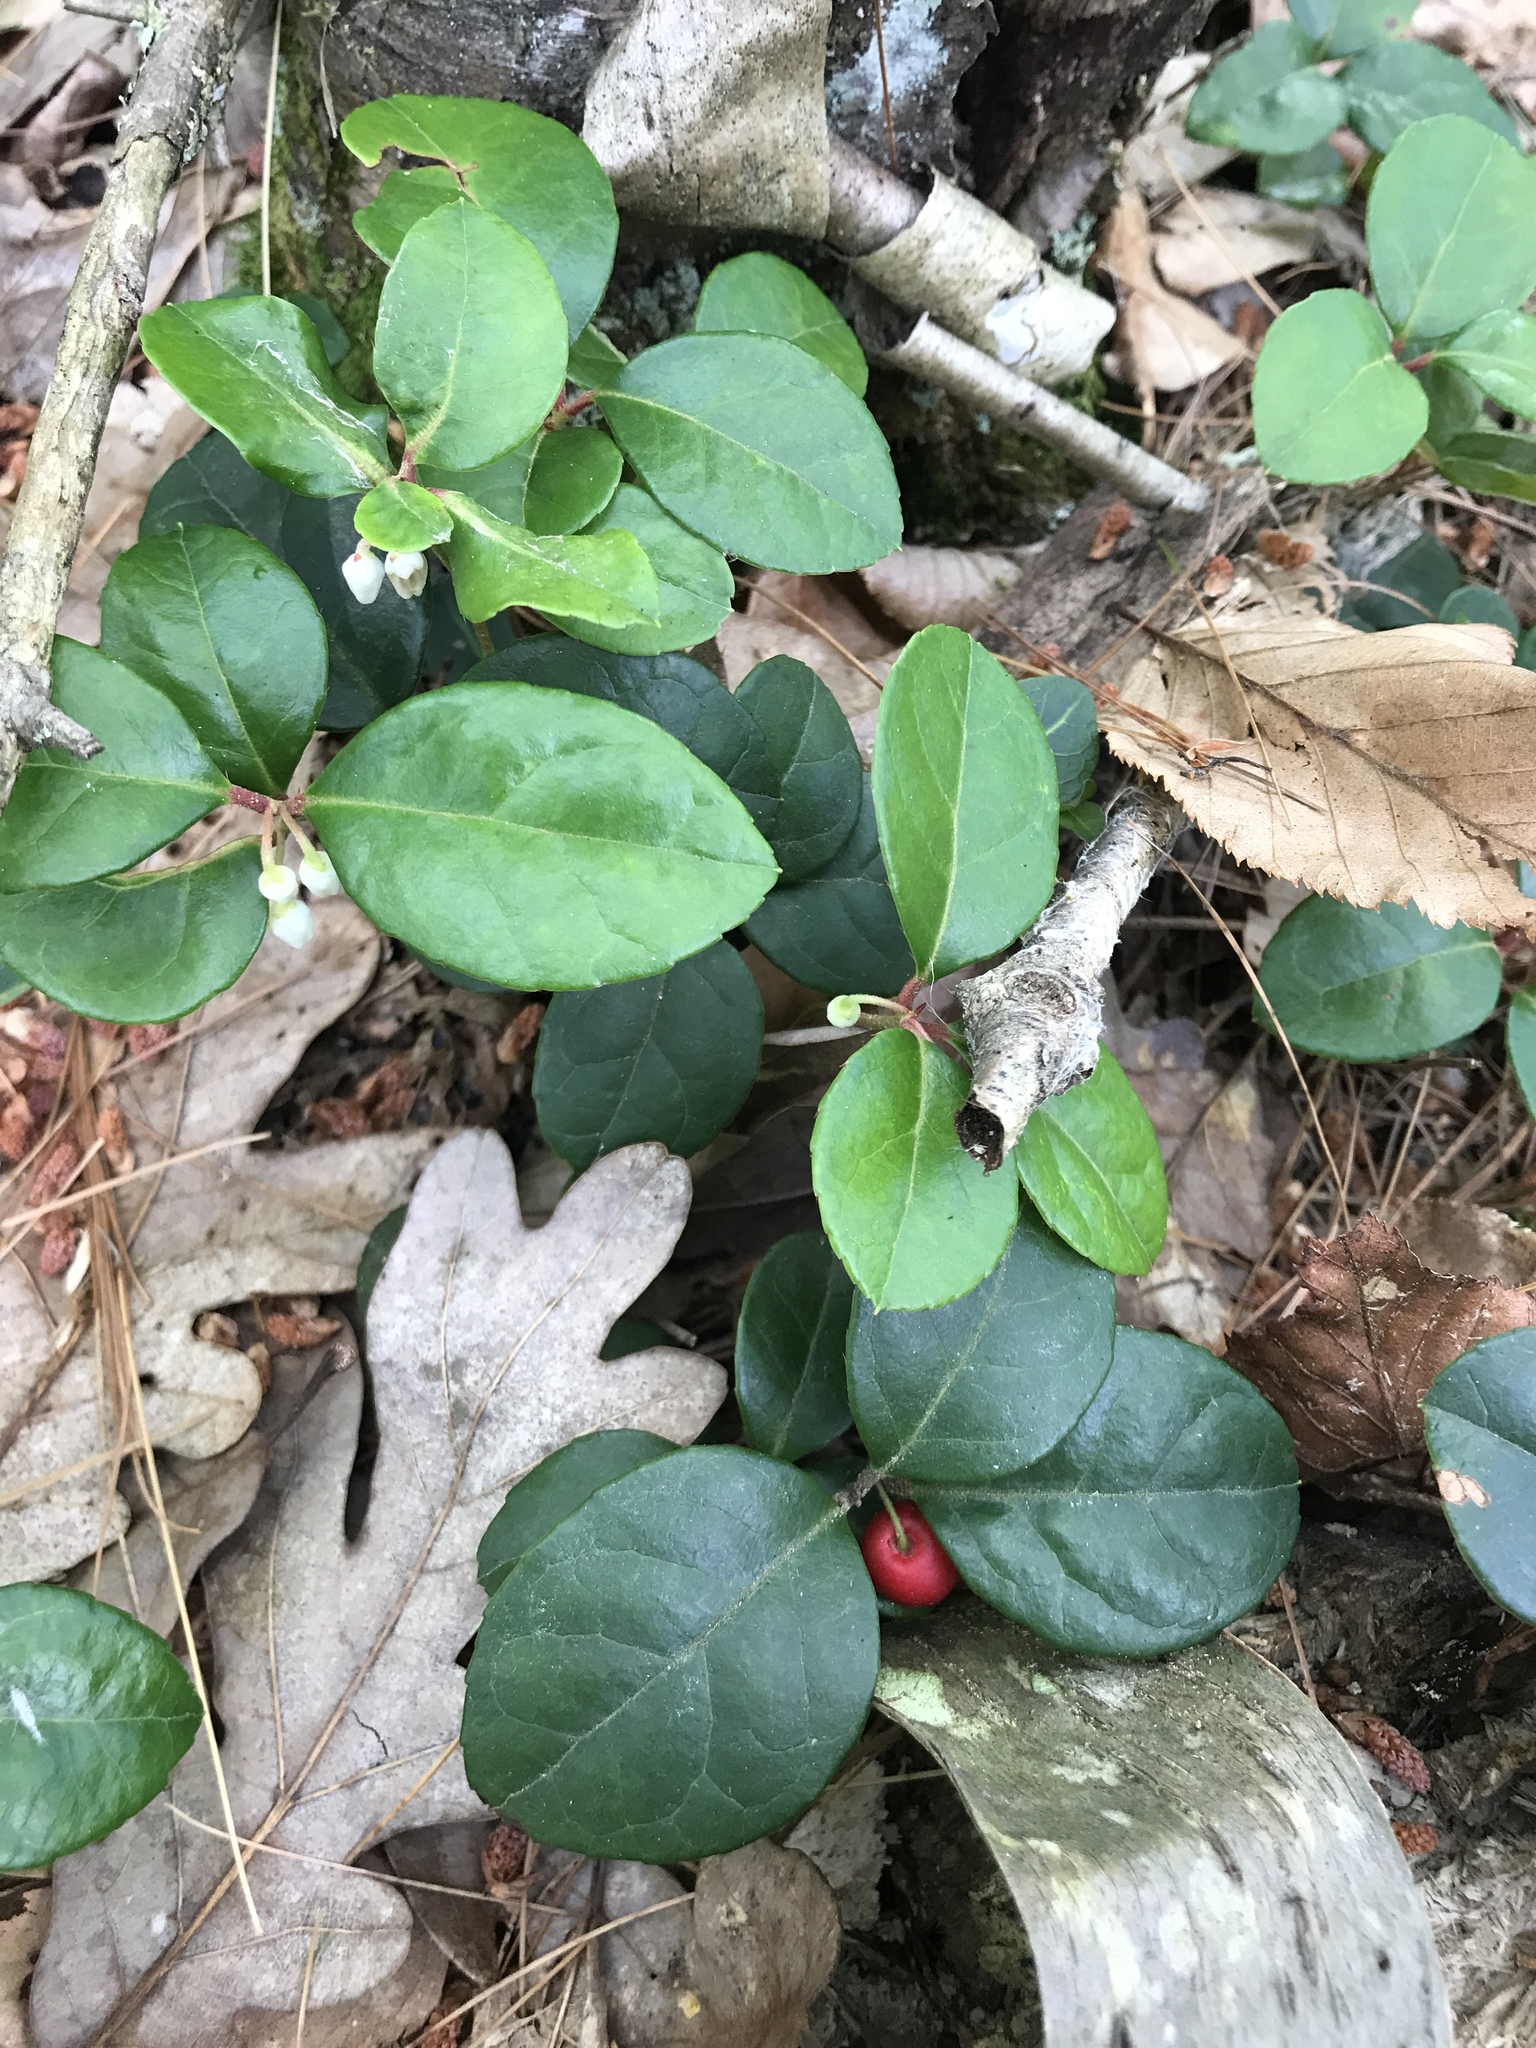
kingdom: Plantae
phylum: Tracheophyta
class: Magnoliopsida
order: Ericales
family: Ericaceae
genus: Gaultheria
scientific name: Gaultheria procumbens
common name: Checkerberry
